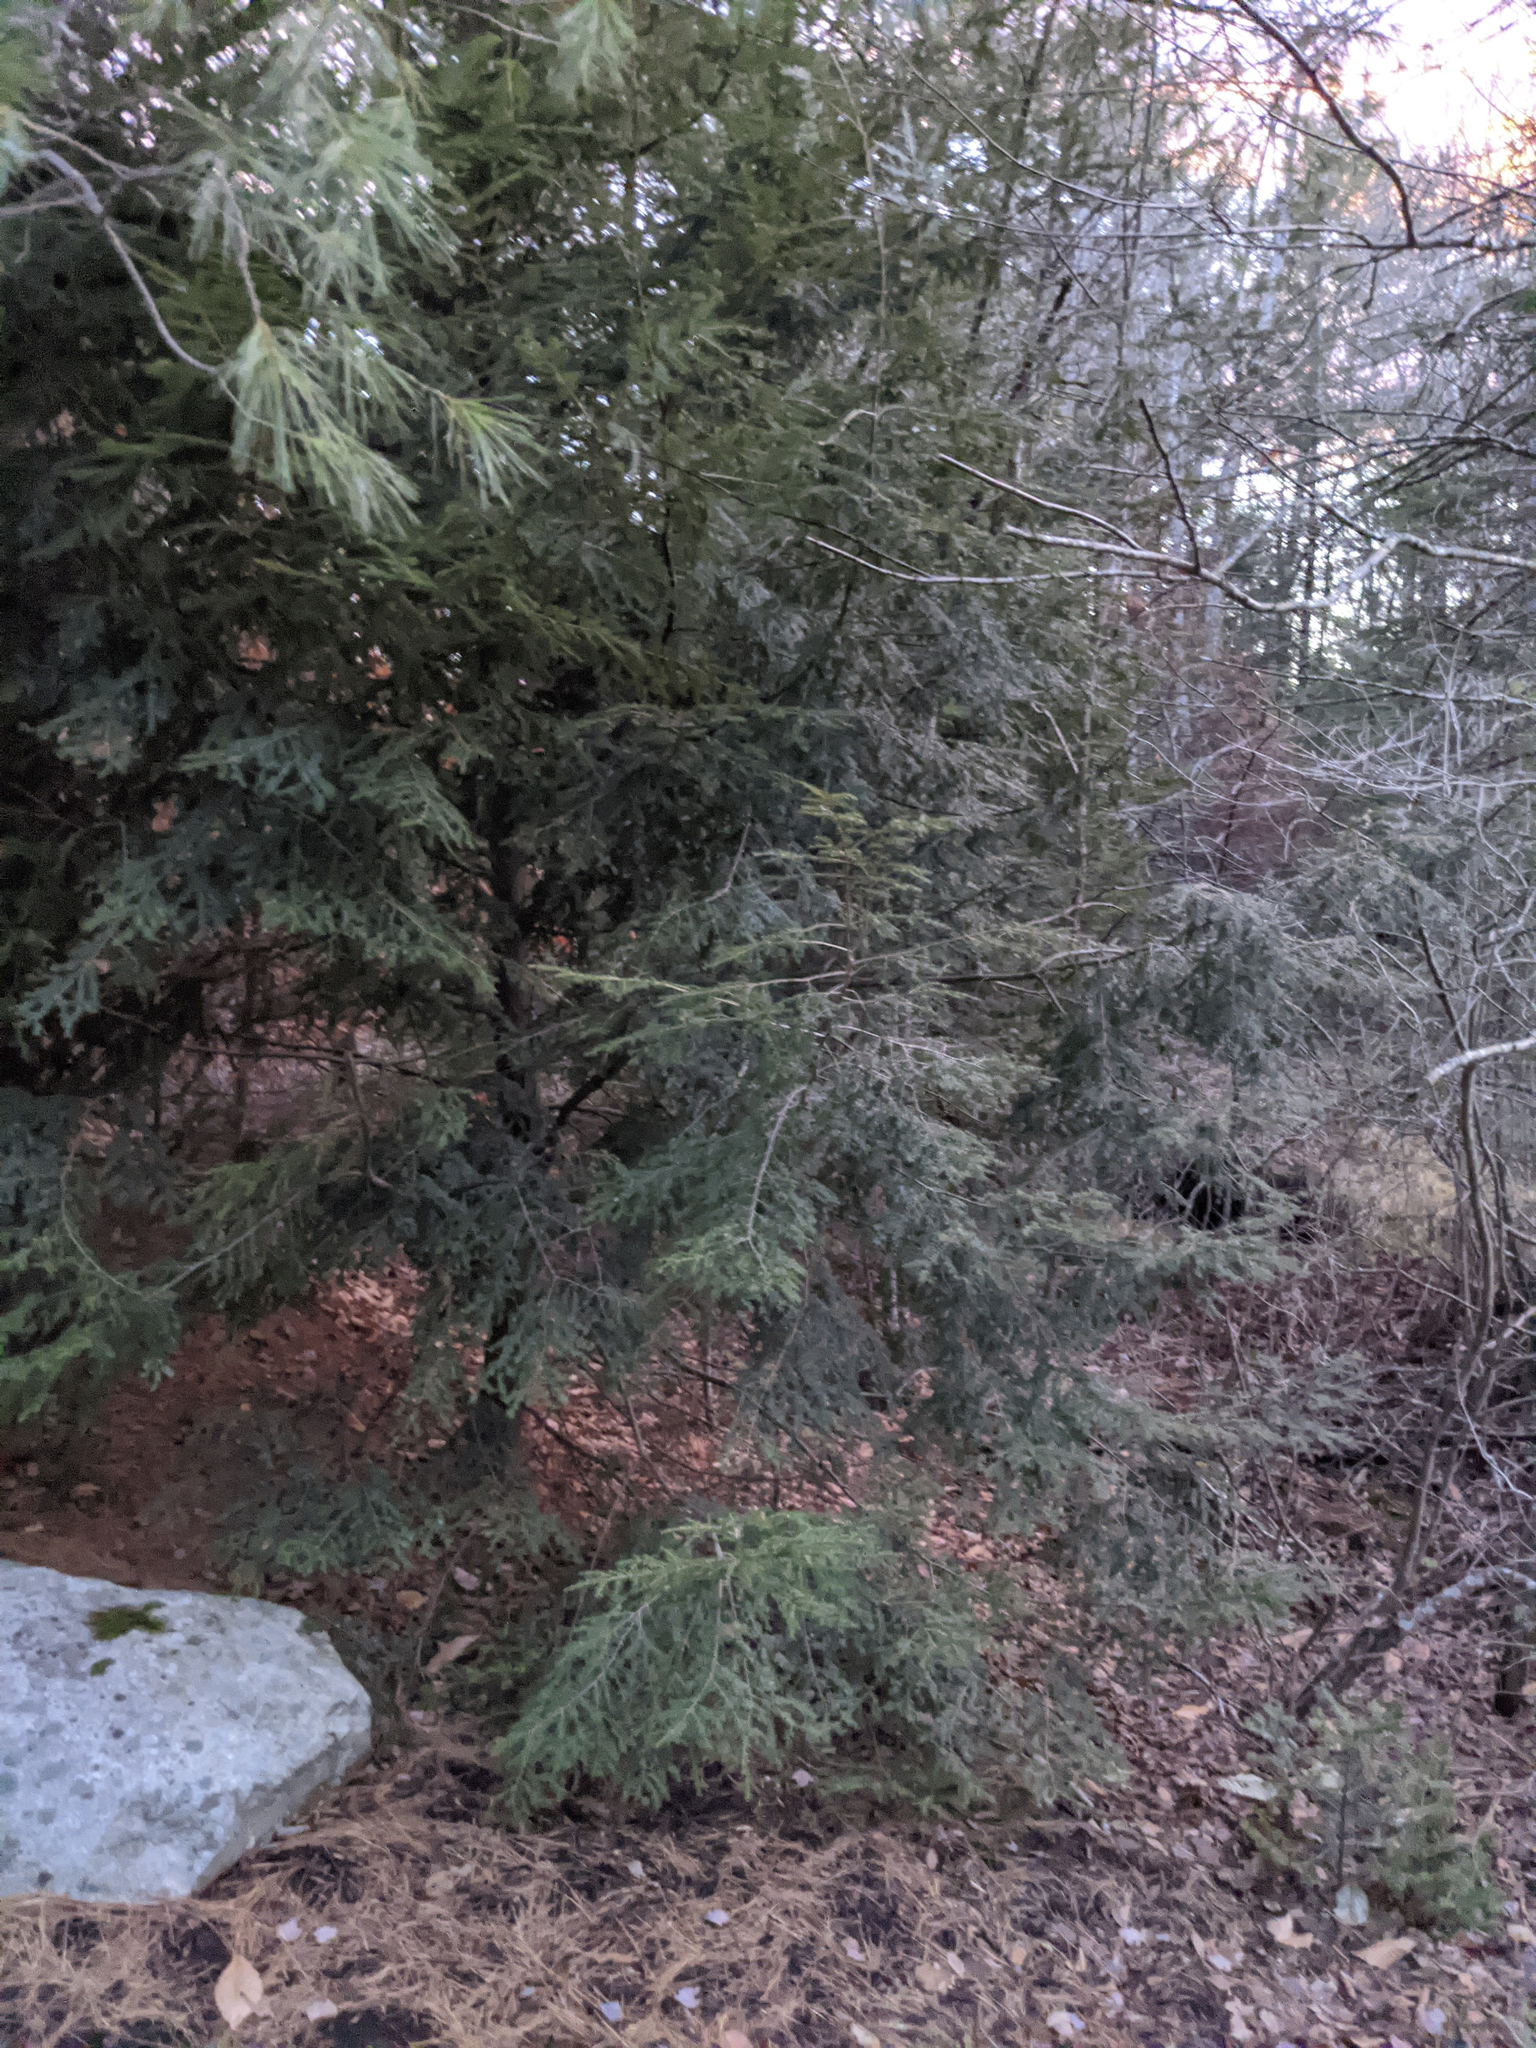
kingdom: Plantae
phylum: Tracheophyta
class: Pinopsida
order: Pinales
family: Pinaceae
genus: Tsuga
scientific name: Tsuga canadensis
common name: Eastern hemlock
